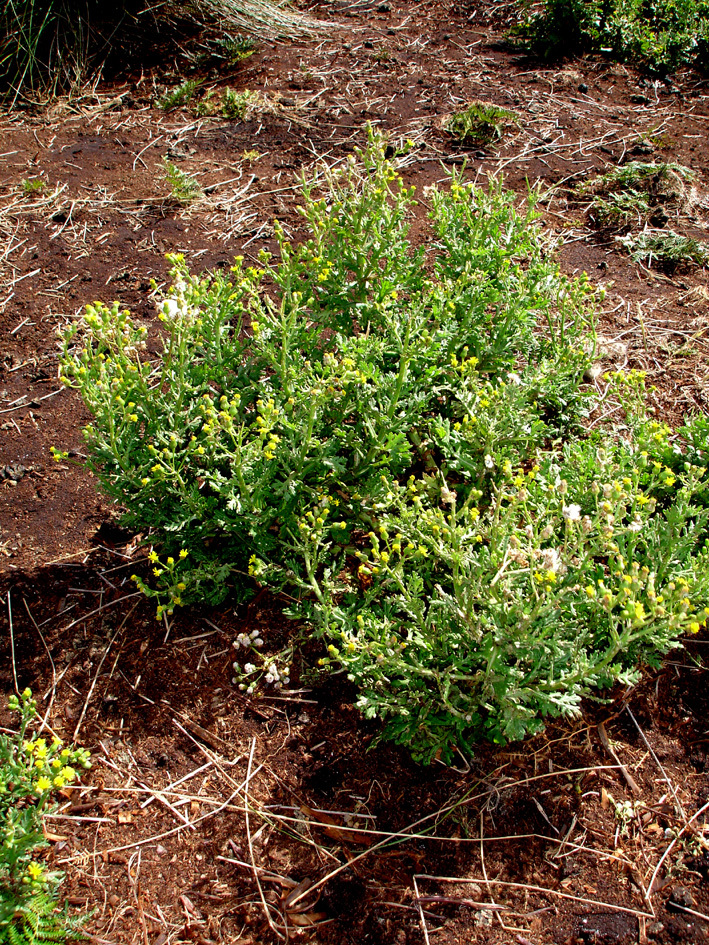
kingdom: Plantae
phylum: Tracheophyta
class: Magnoliopsida
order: Asterales
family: Asteraceae
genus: Senecio
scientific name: Senecio radiolatus
